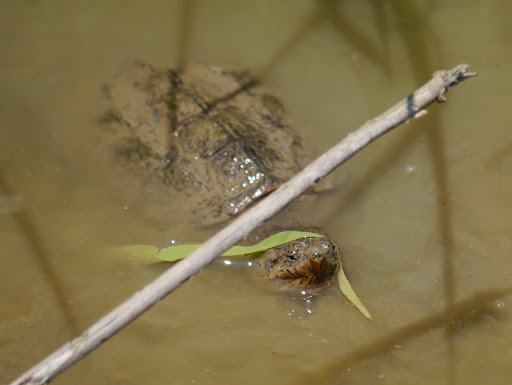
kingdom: Animalia
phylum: Chordata
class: Testudines
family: Chelydridae
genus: Chelydra
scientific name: Chelydra serpentina
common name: Common snapping turtle
